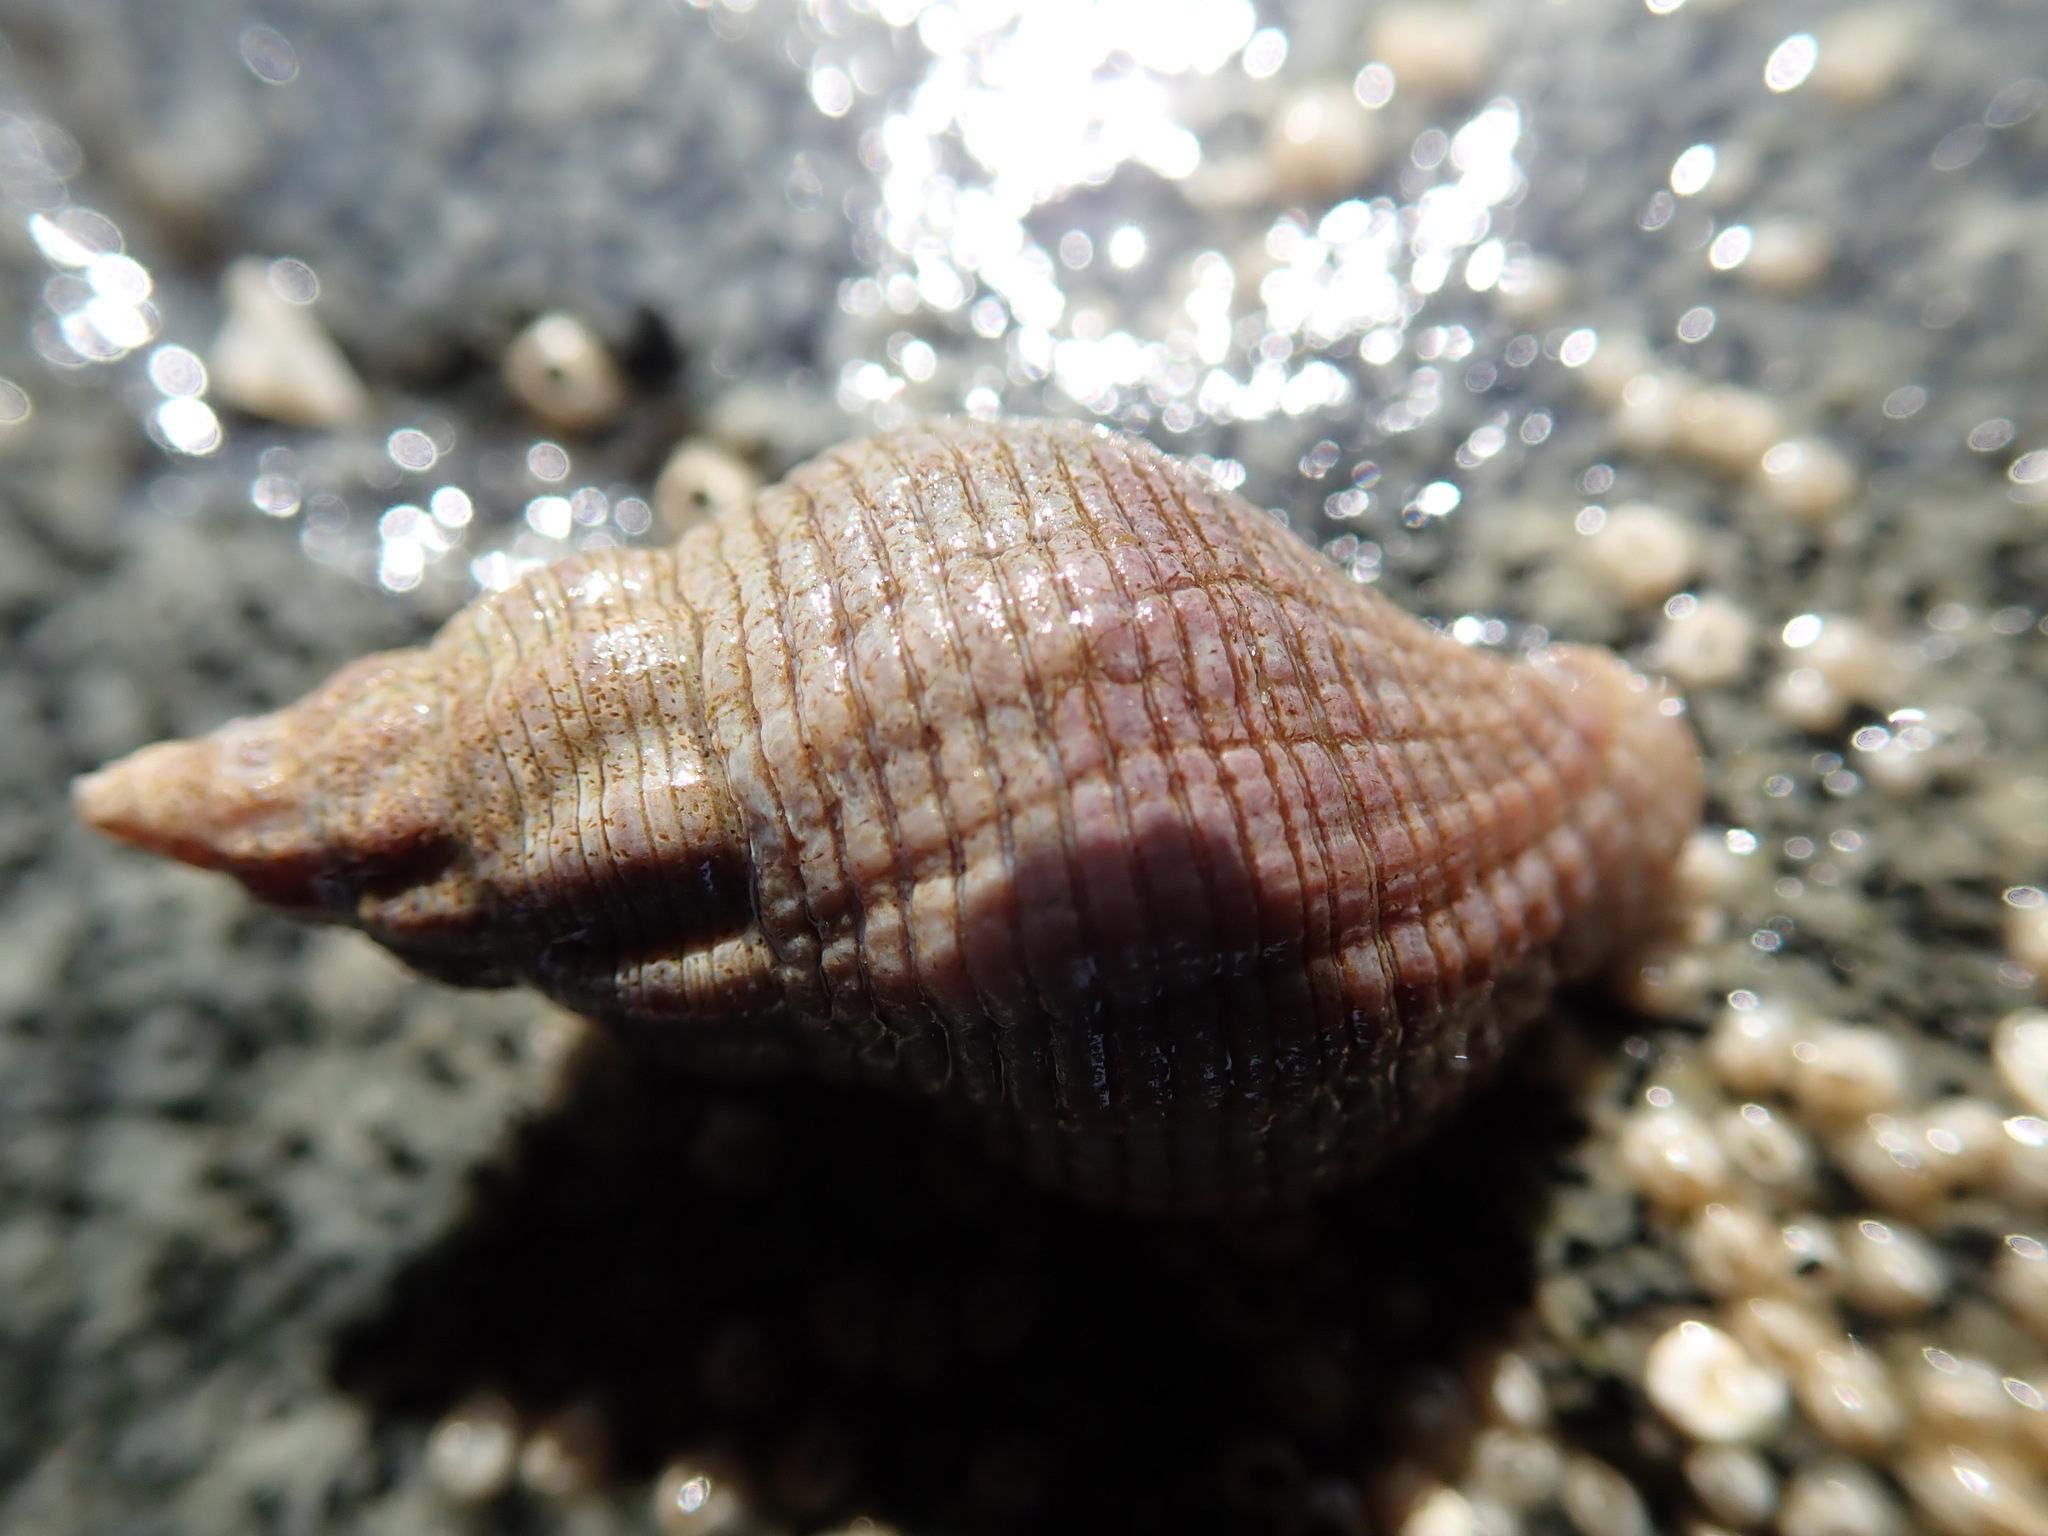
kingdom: Animalia
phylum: Mollusca
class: Gastropoda
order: Neogastropoda
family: Tudiclidae
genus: Lirabuccinum
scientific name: Lirabuccinum dirum
